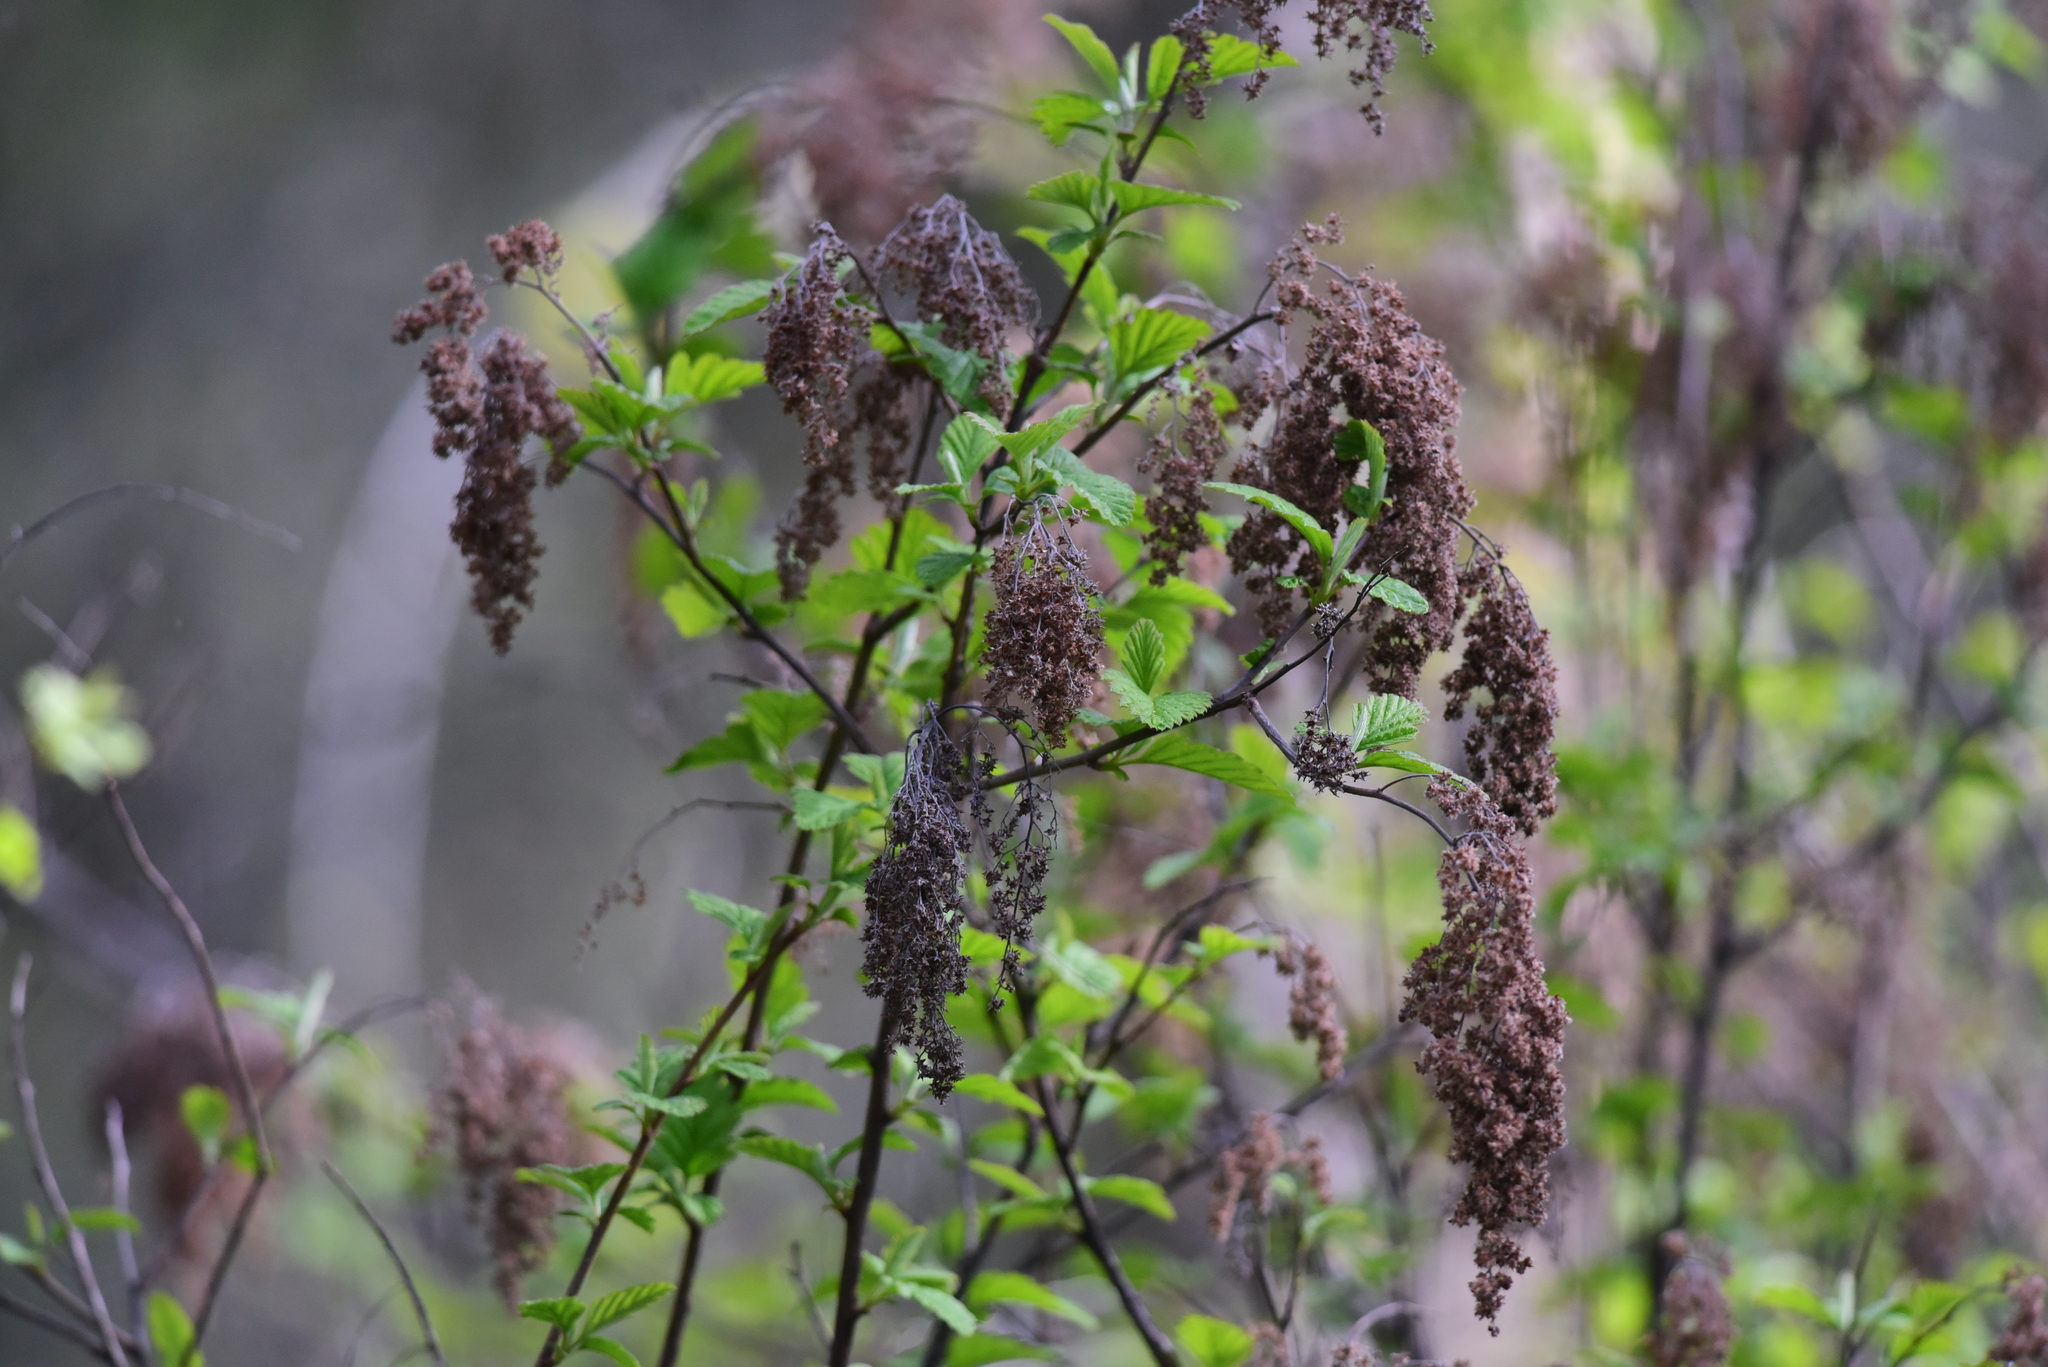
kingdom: Plantae
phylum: Tracheophyta
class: Magnoliopsida
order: Rosales
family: Rosaceae
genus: Holodiscus
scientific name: Holodiscus discolor
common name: Oceanspray
